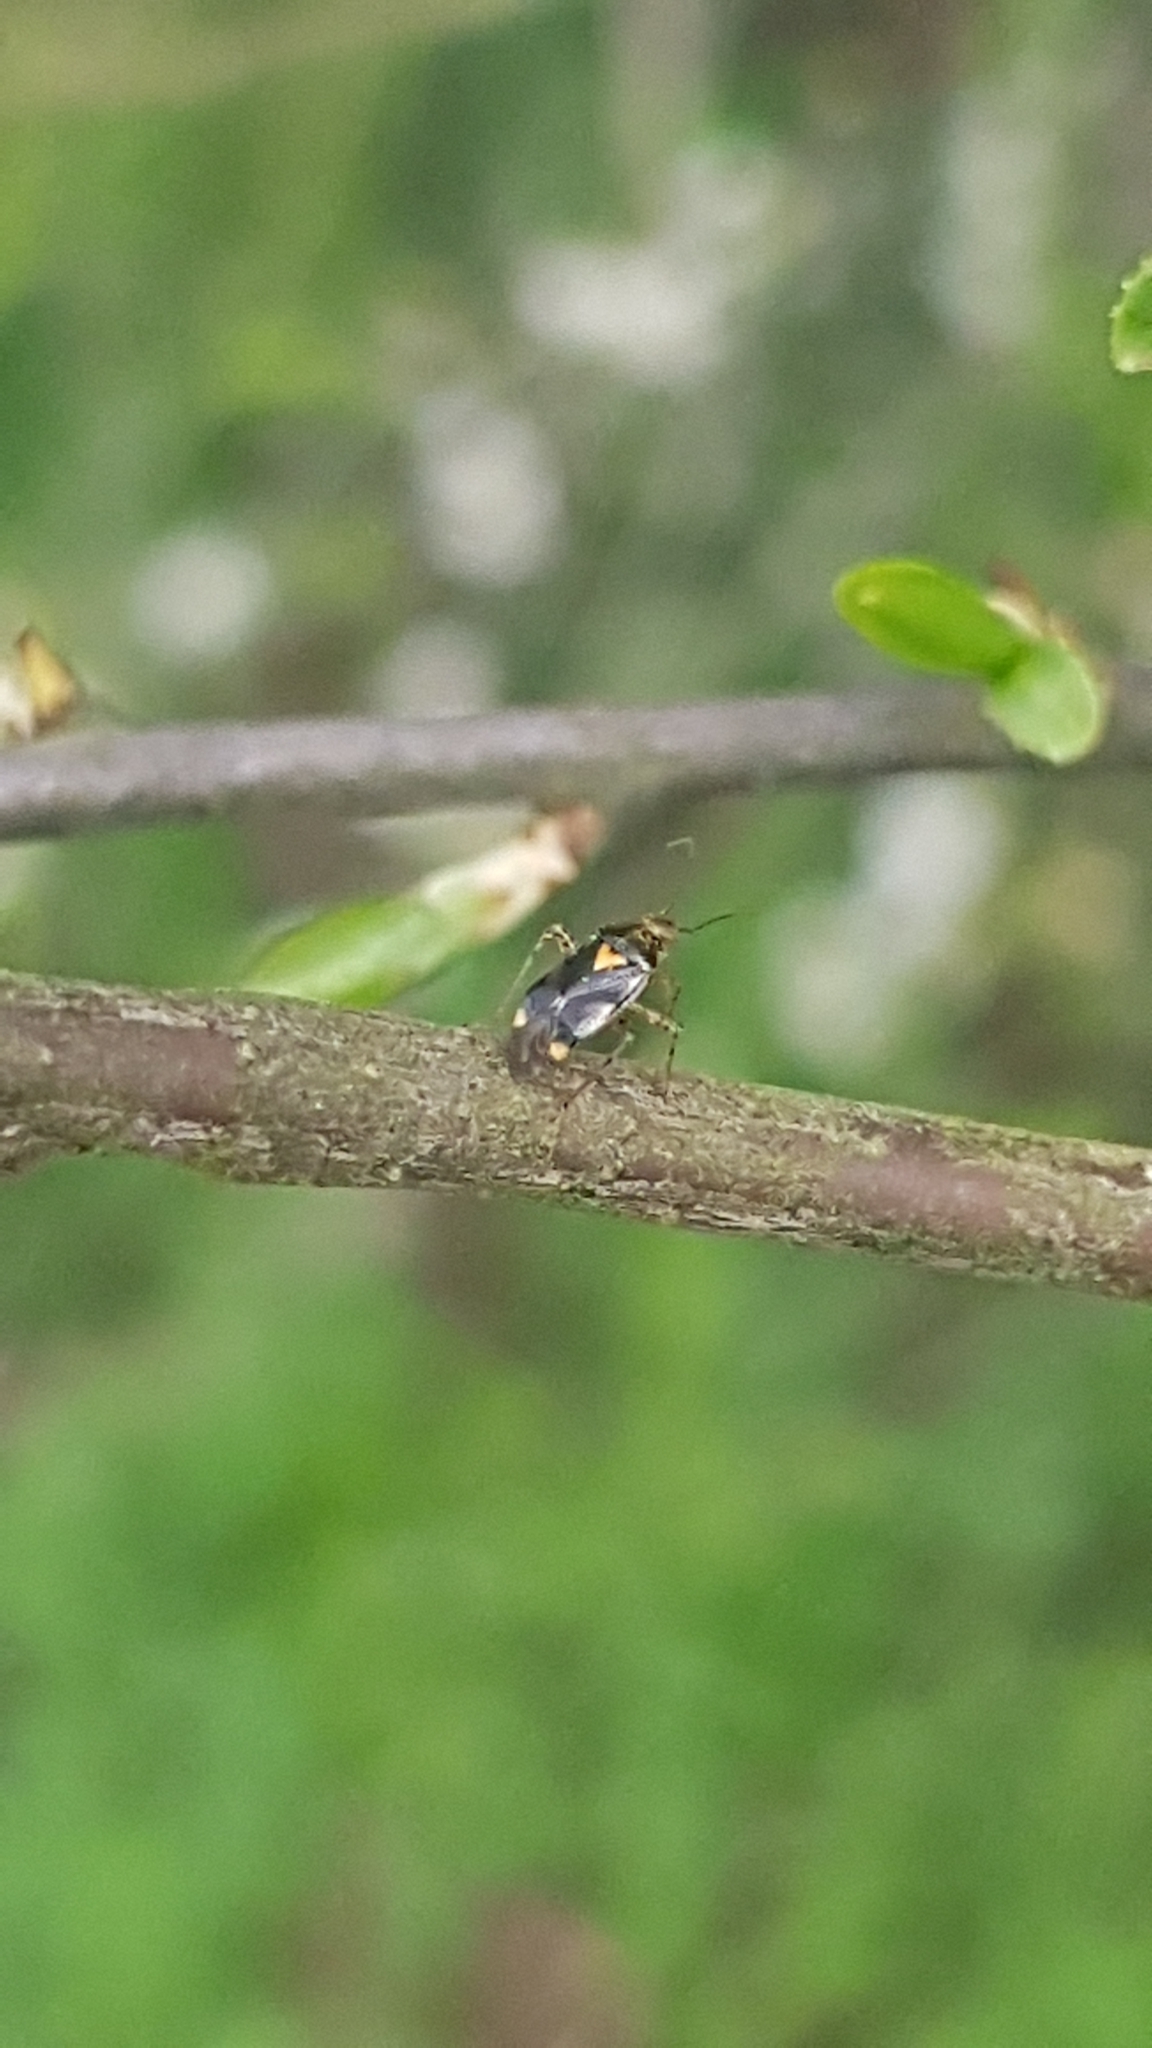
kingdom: Animalia
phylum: Arthropoda
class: Insecta
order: Hemiptera
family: Miridae
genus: Liocoris
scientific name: Liocoris tripustulatus
